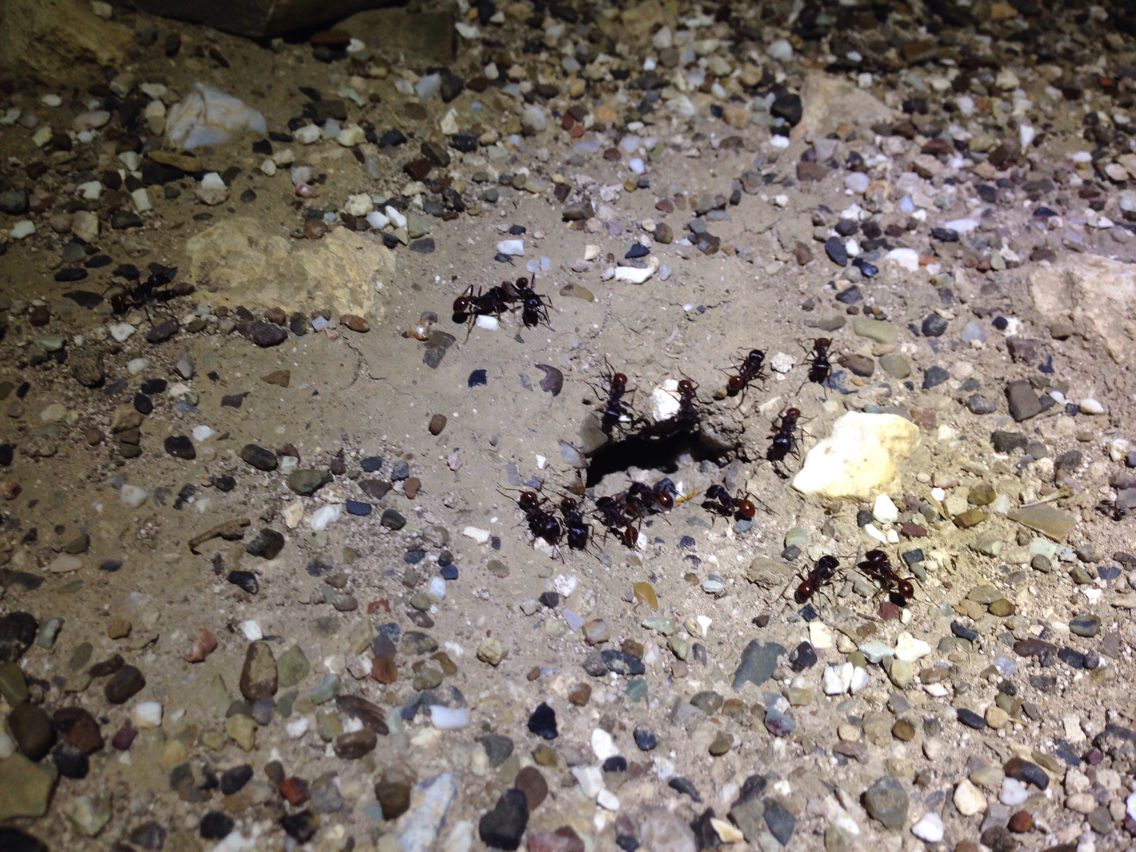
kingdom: Animalia
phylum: Arthropoda
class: Insecta
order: Hymenoptera
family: Formicidae
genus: Pogonomyrmex
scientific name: Pogonomyrmex rugosus
